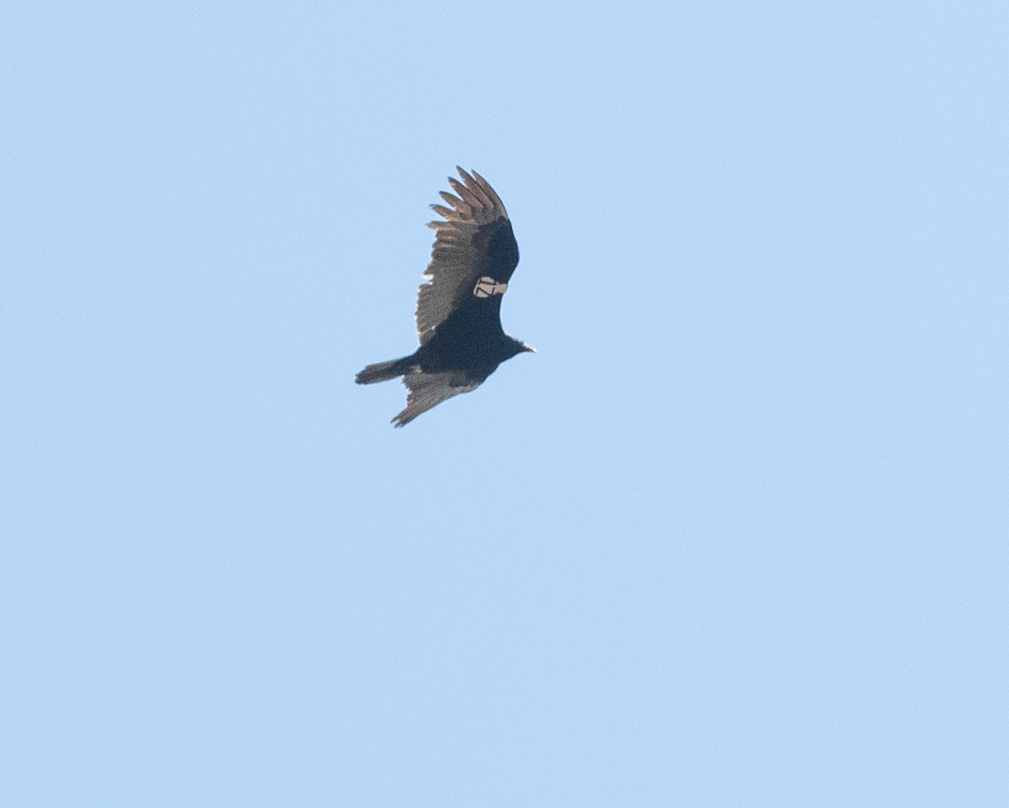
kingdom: Animalia
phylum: Chordata
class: Aves
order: Accipitriformes
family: Cathartidae
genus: Cathartes
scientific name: Cathartes aura
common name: Turkey vulture
